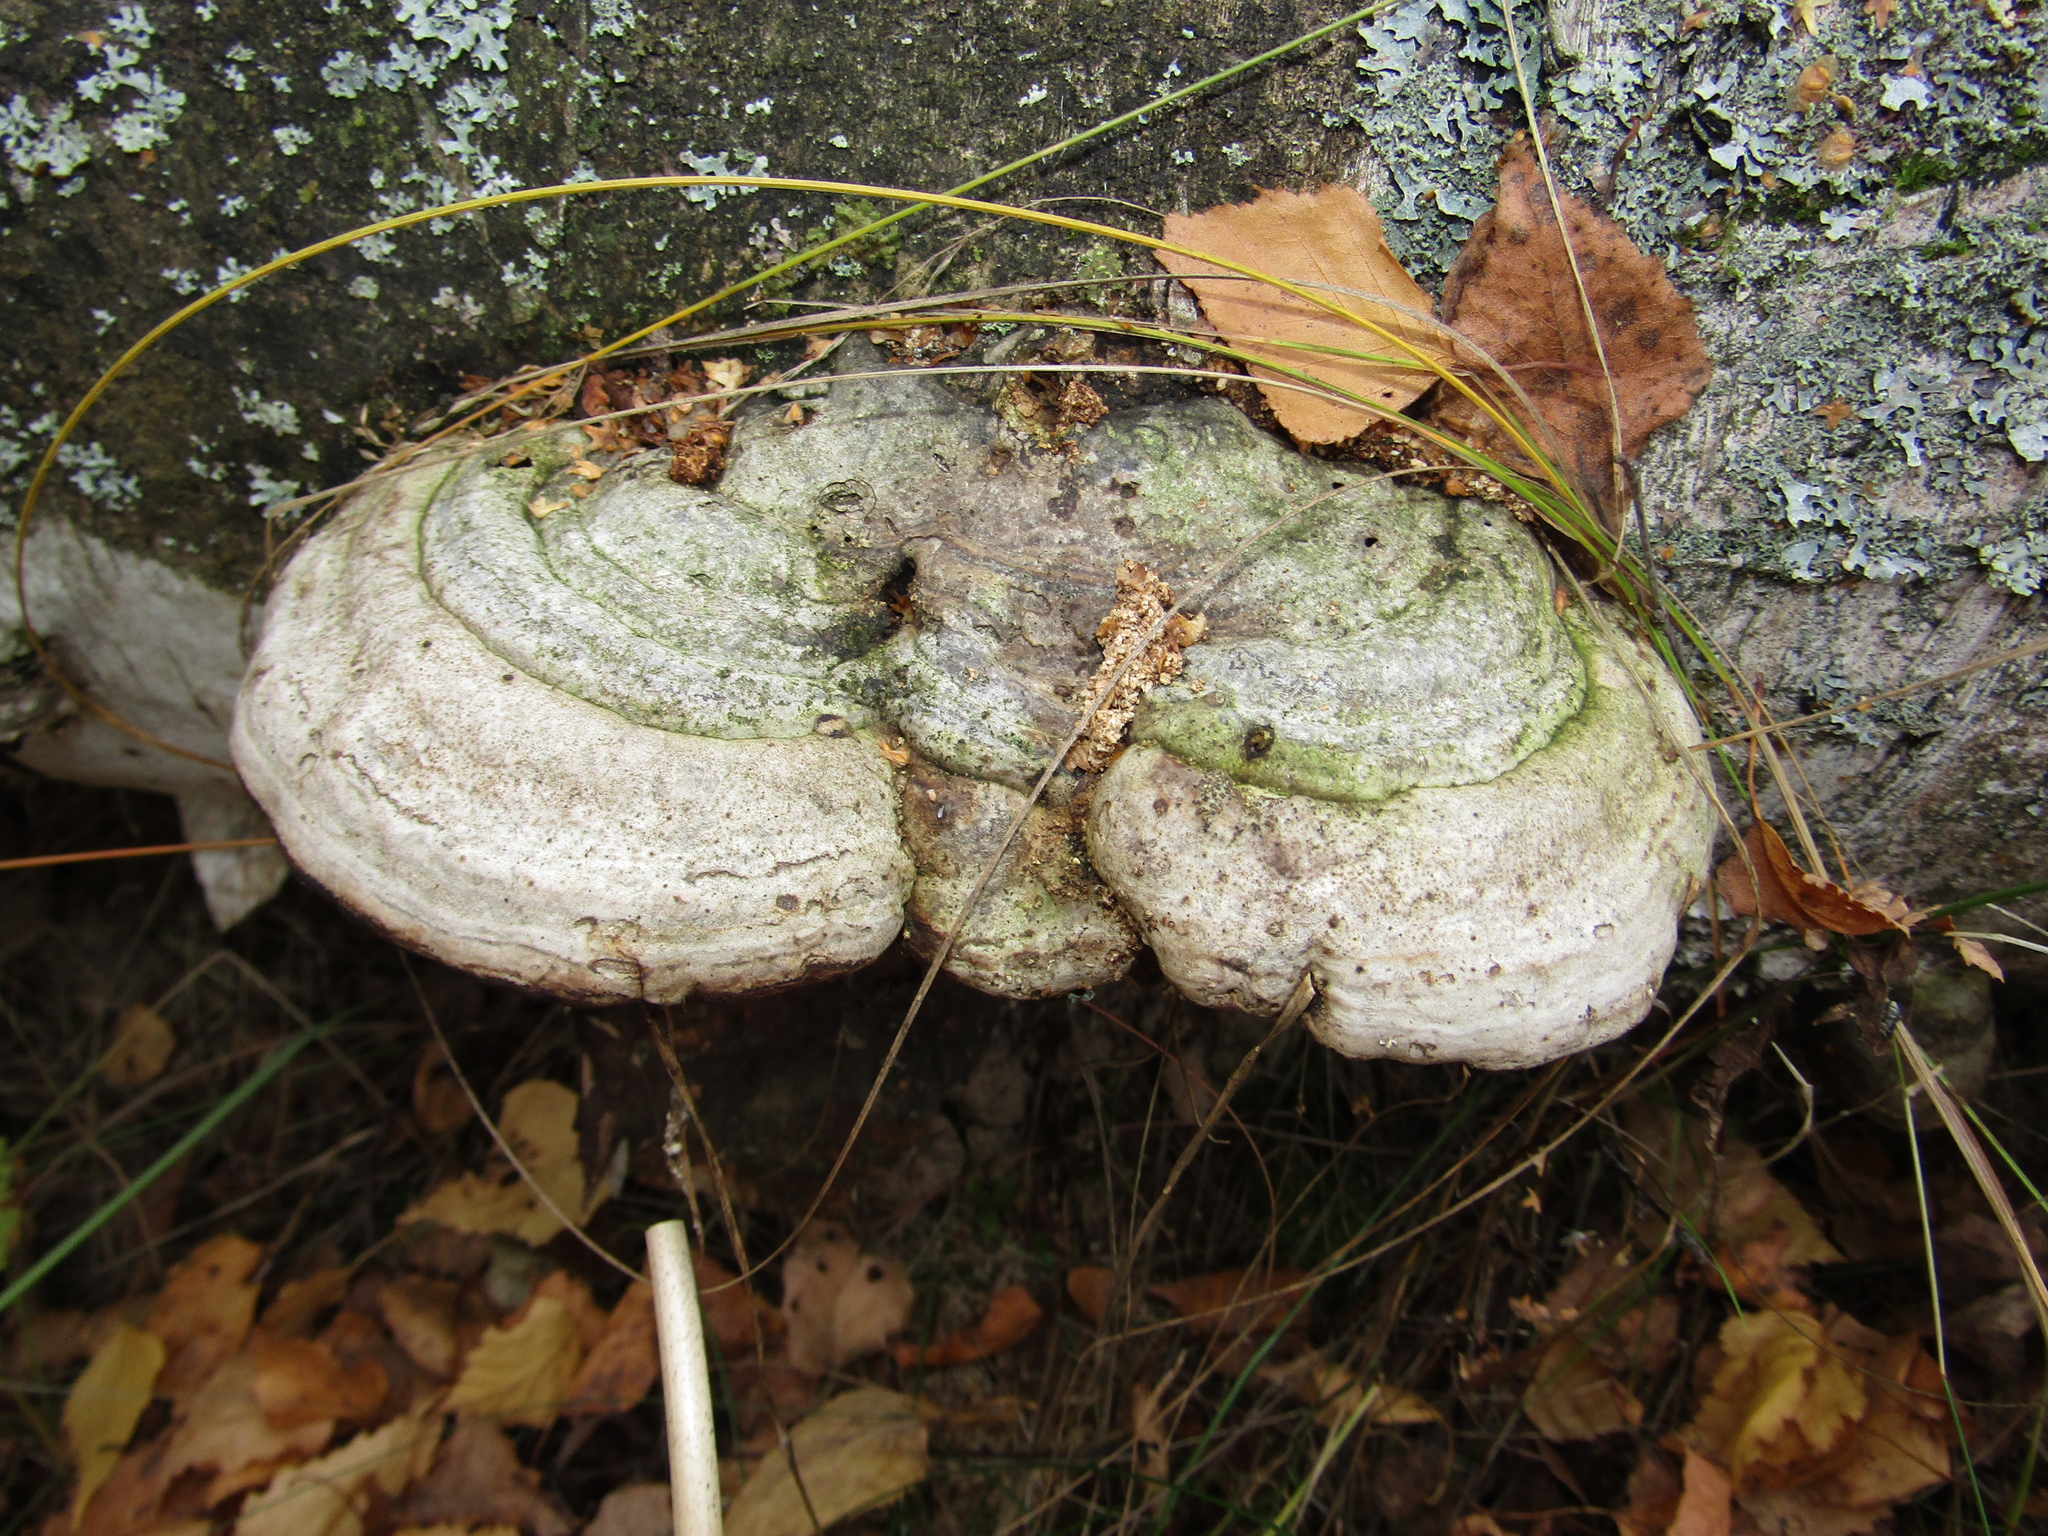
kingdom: Fungi
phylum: Basidiomycota
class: Agaricomycetes
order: Polyporales
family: Polyporaceae
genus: Fomes
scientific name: Fomes fomentarius
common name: Hoof fungus
